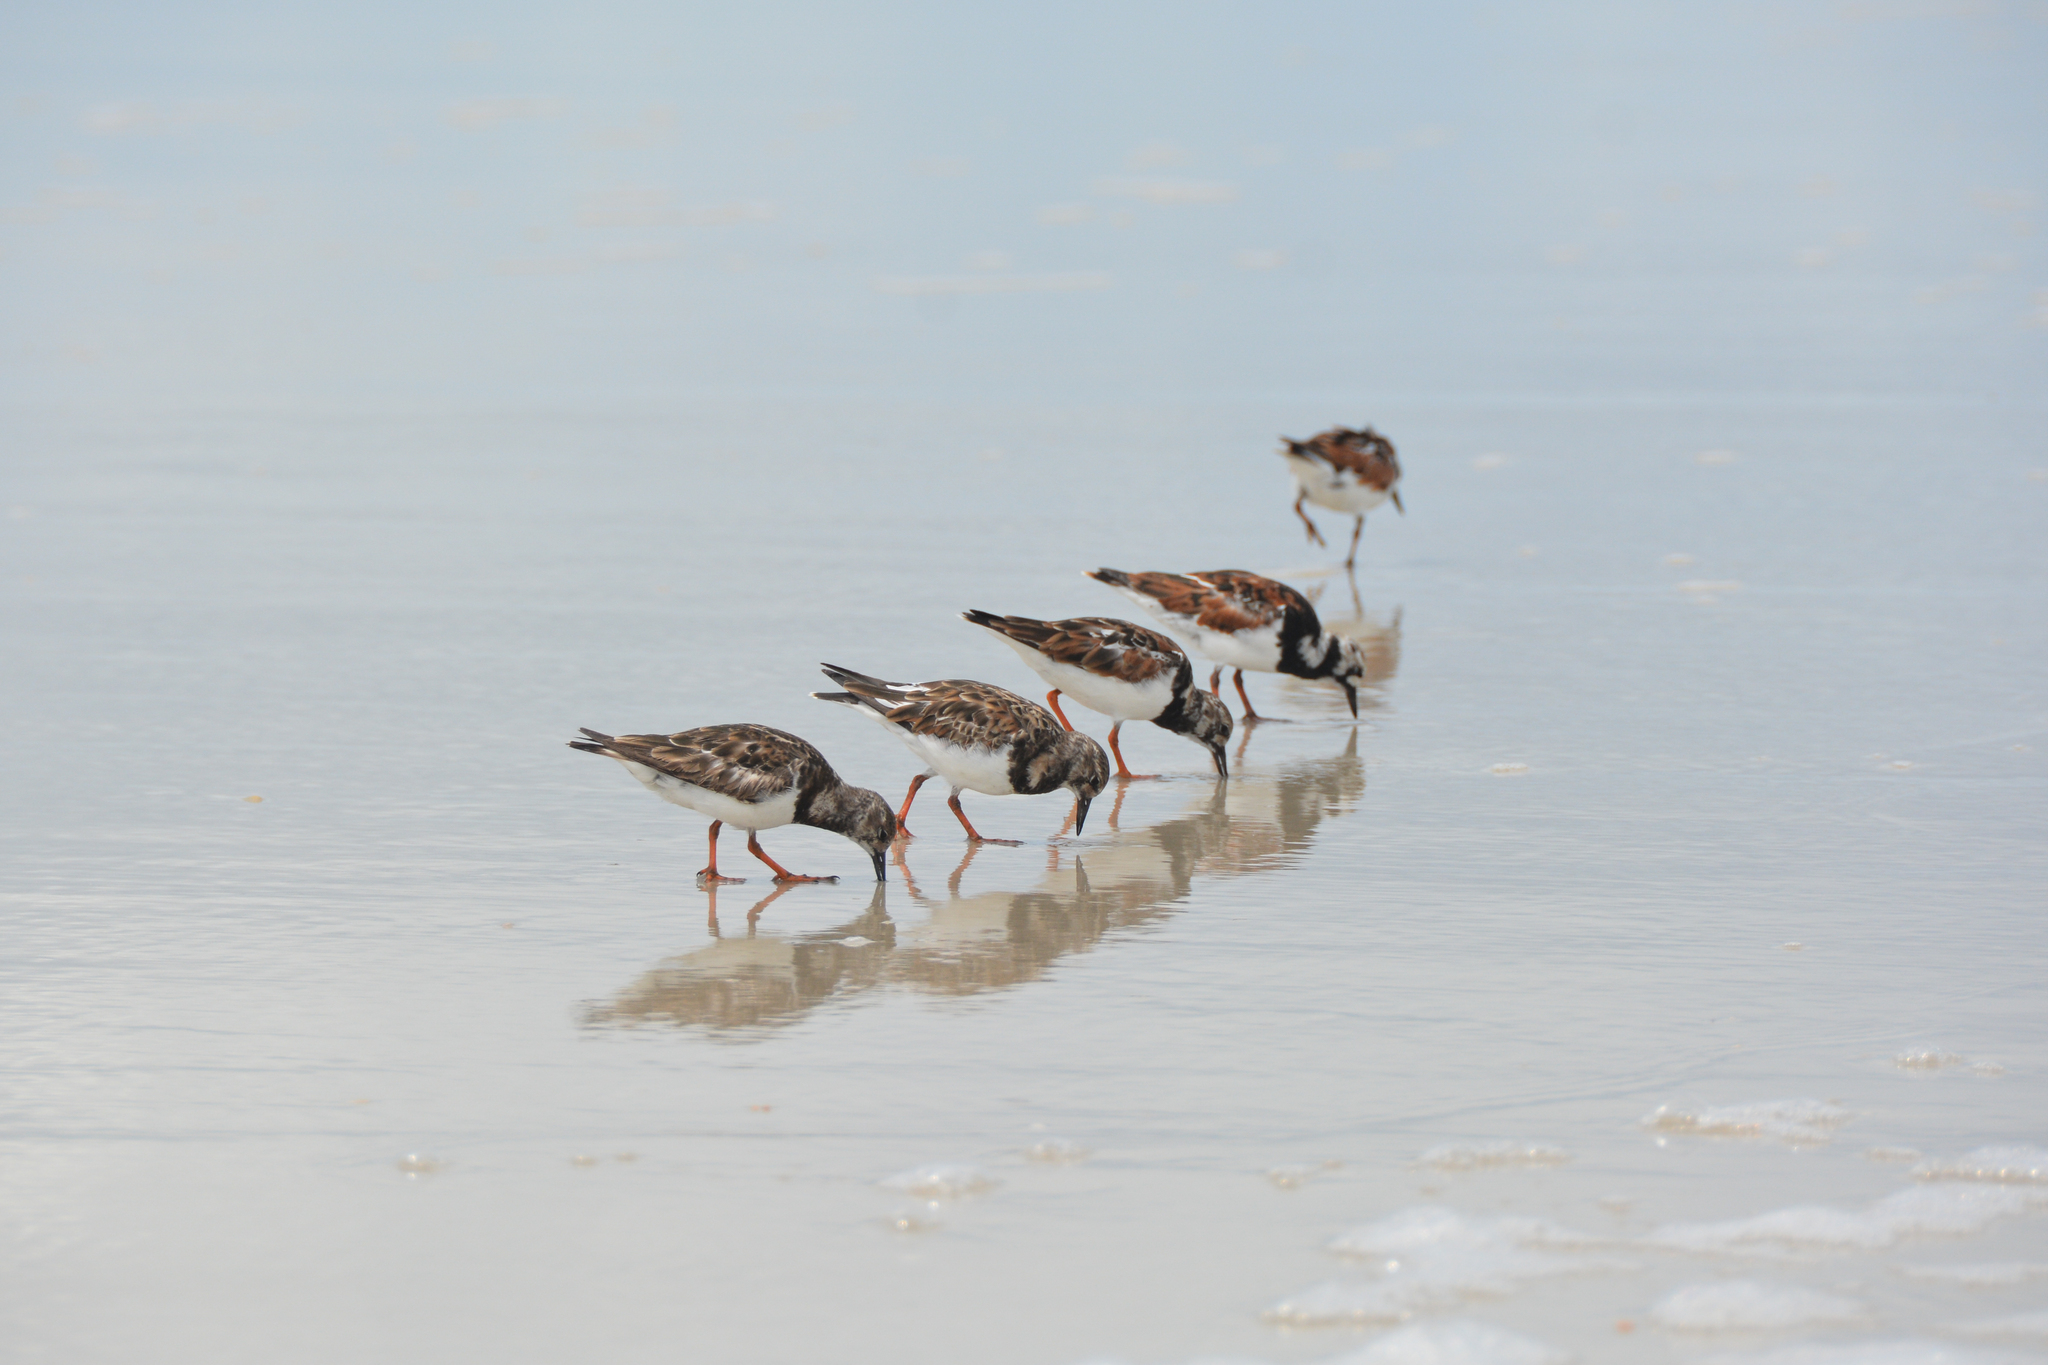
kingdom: Animalia
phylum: Chordata
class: Aves
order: Charadriiformes
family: Scolopacidae
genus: Arenaria
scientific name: Arenaria interpres
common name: Ruddy turnstone
